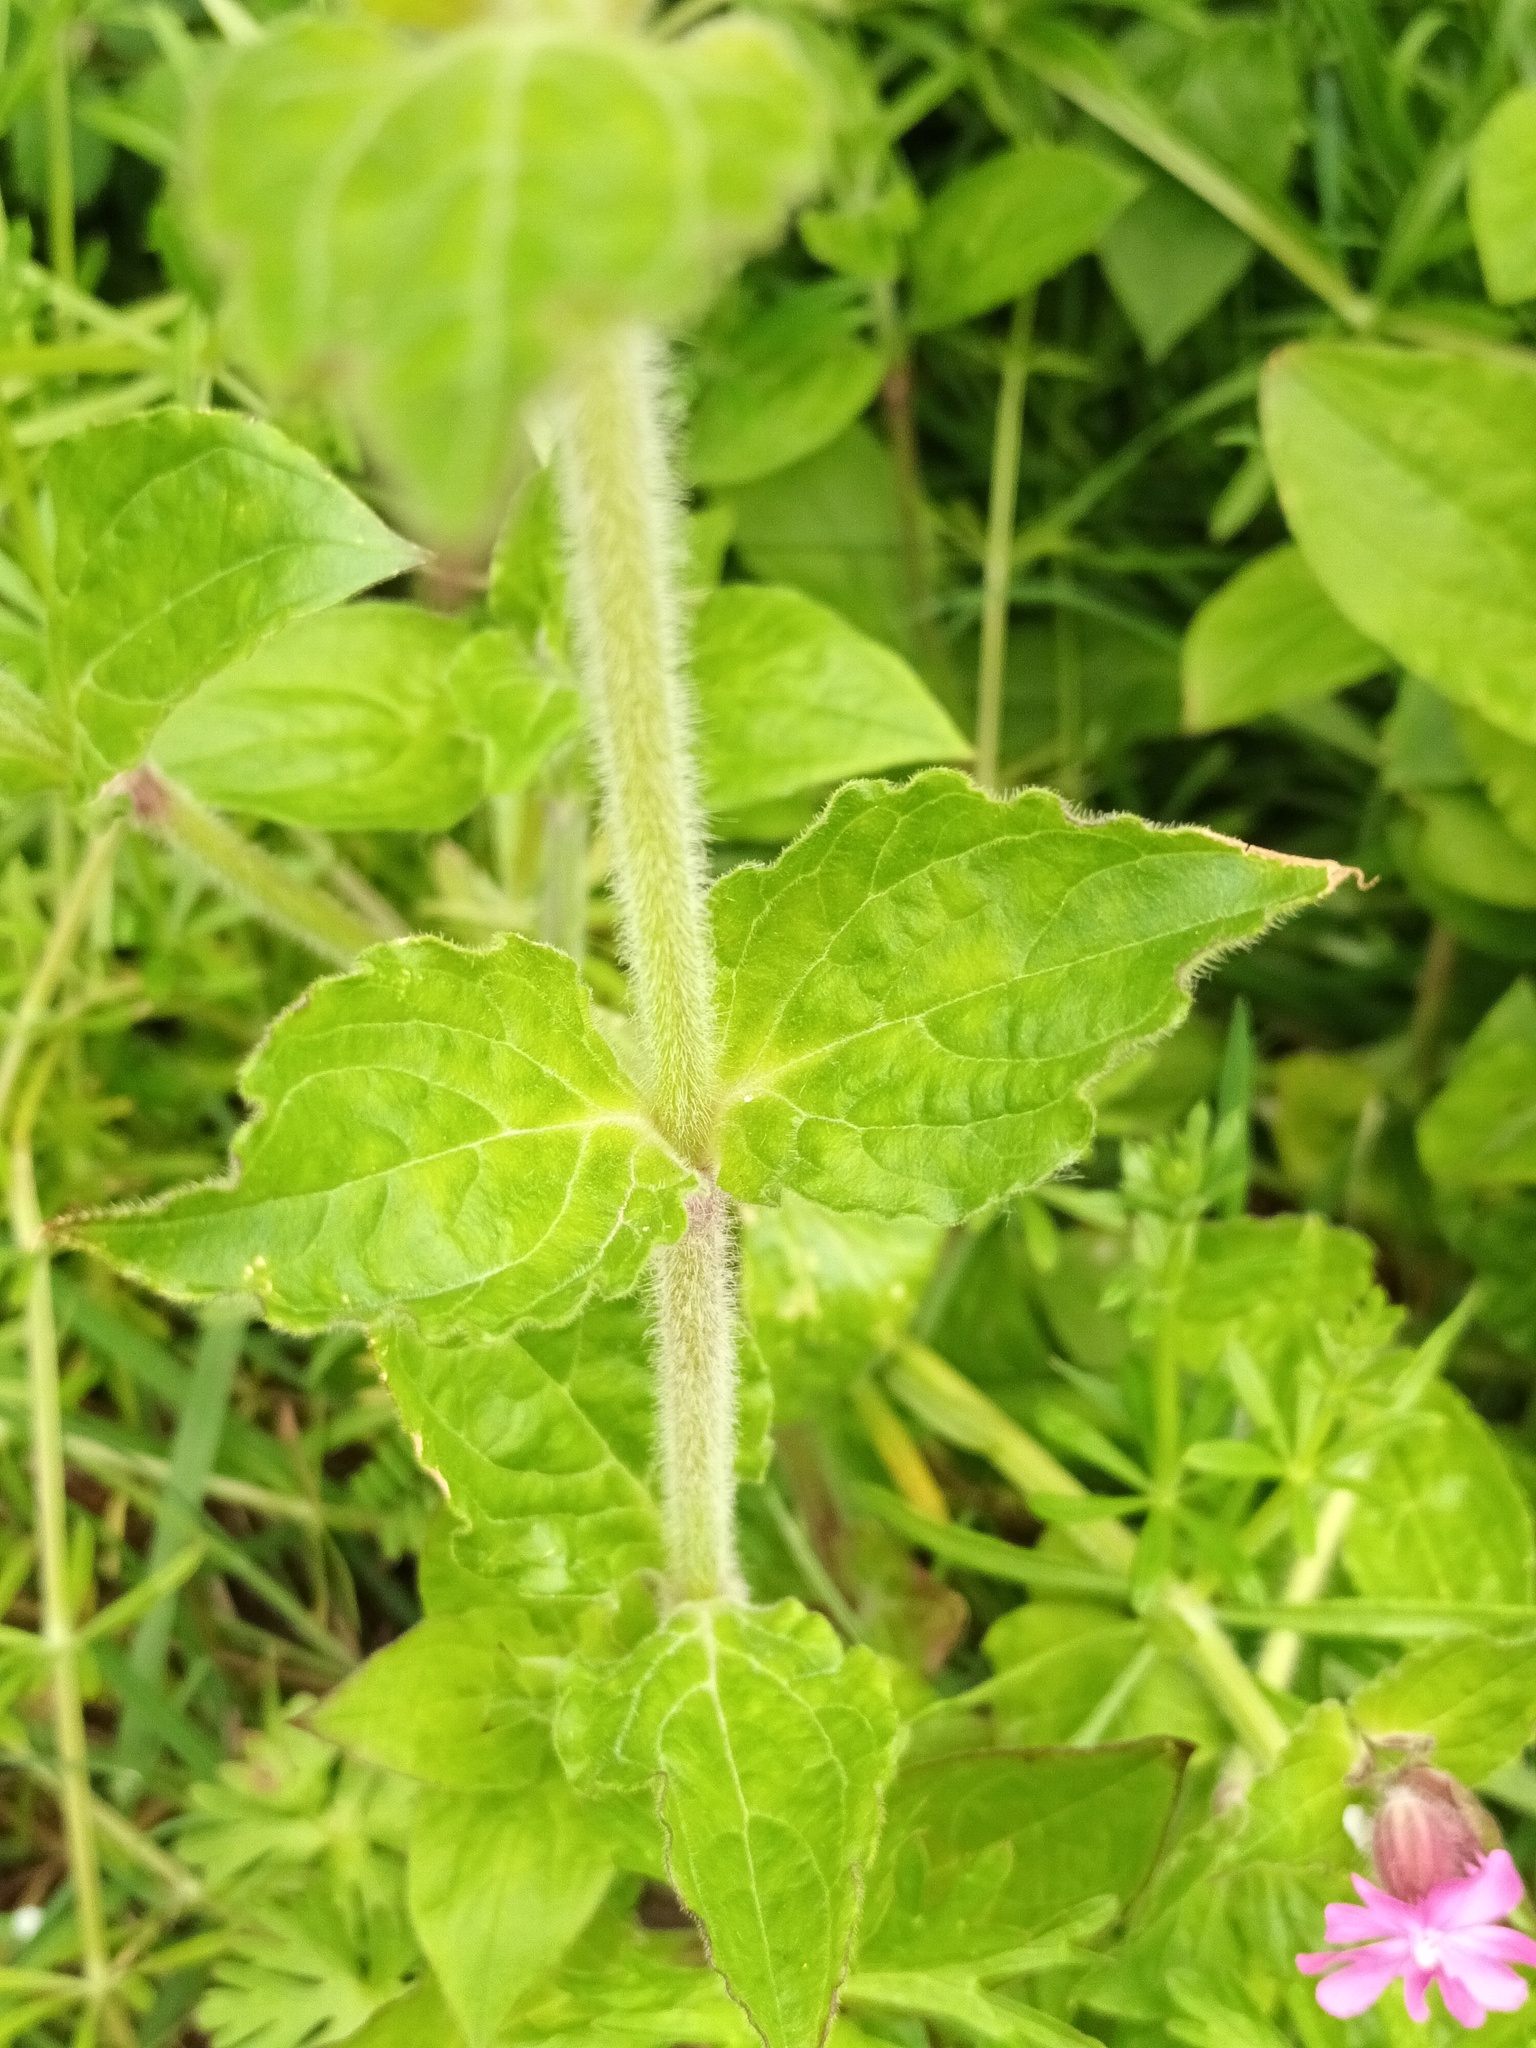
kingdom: Plantae
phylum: Tracheophyta
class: Magnoliopsida
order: Caryophyllales
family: Caryophyllaceae
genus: Silene
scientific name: Silene dioica
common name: Red campion
